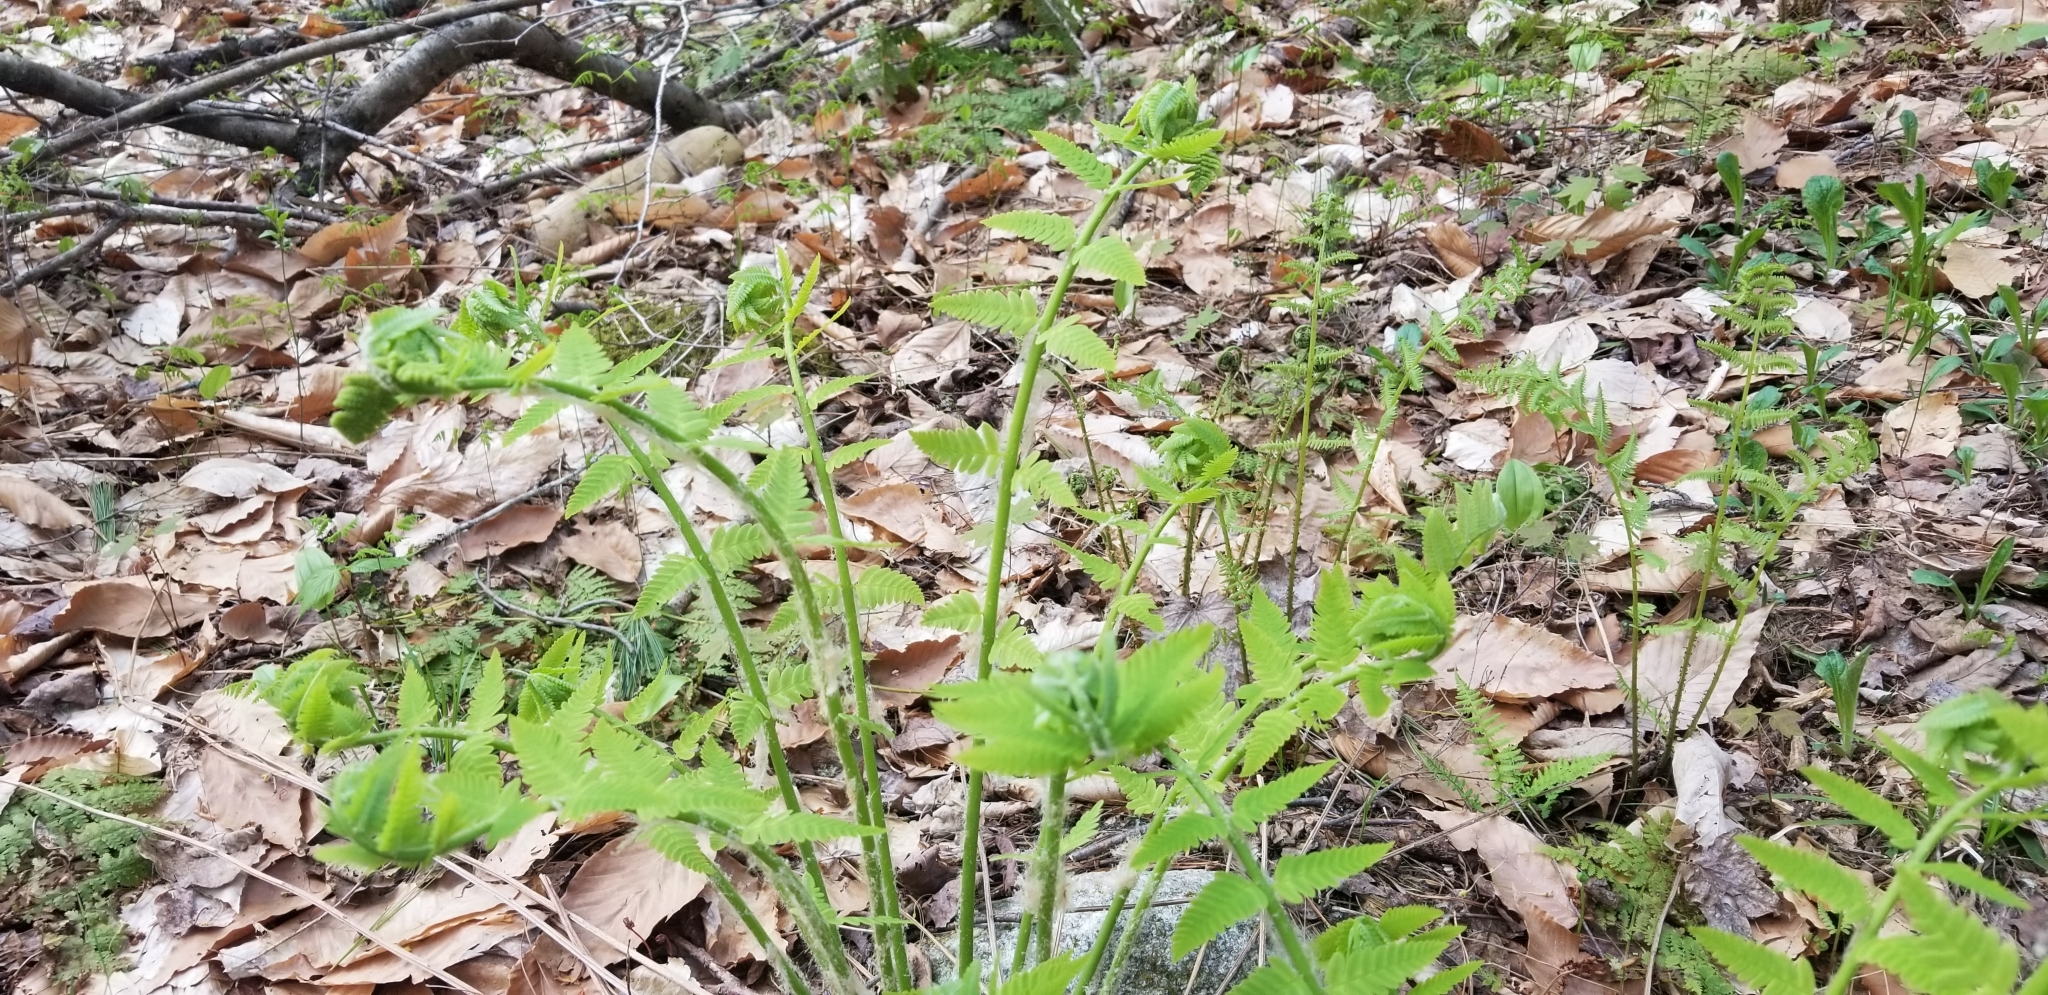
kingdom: Plantae
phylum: Tracheophyta
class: Polypodiopsida
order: Osmundales
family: Osmundaceae
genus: Claytosmunda
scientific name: Claytosmunda claytoniana
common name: Clayton's fern
